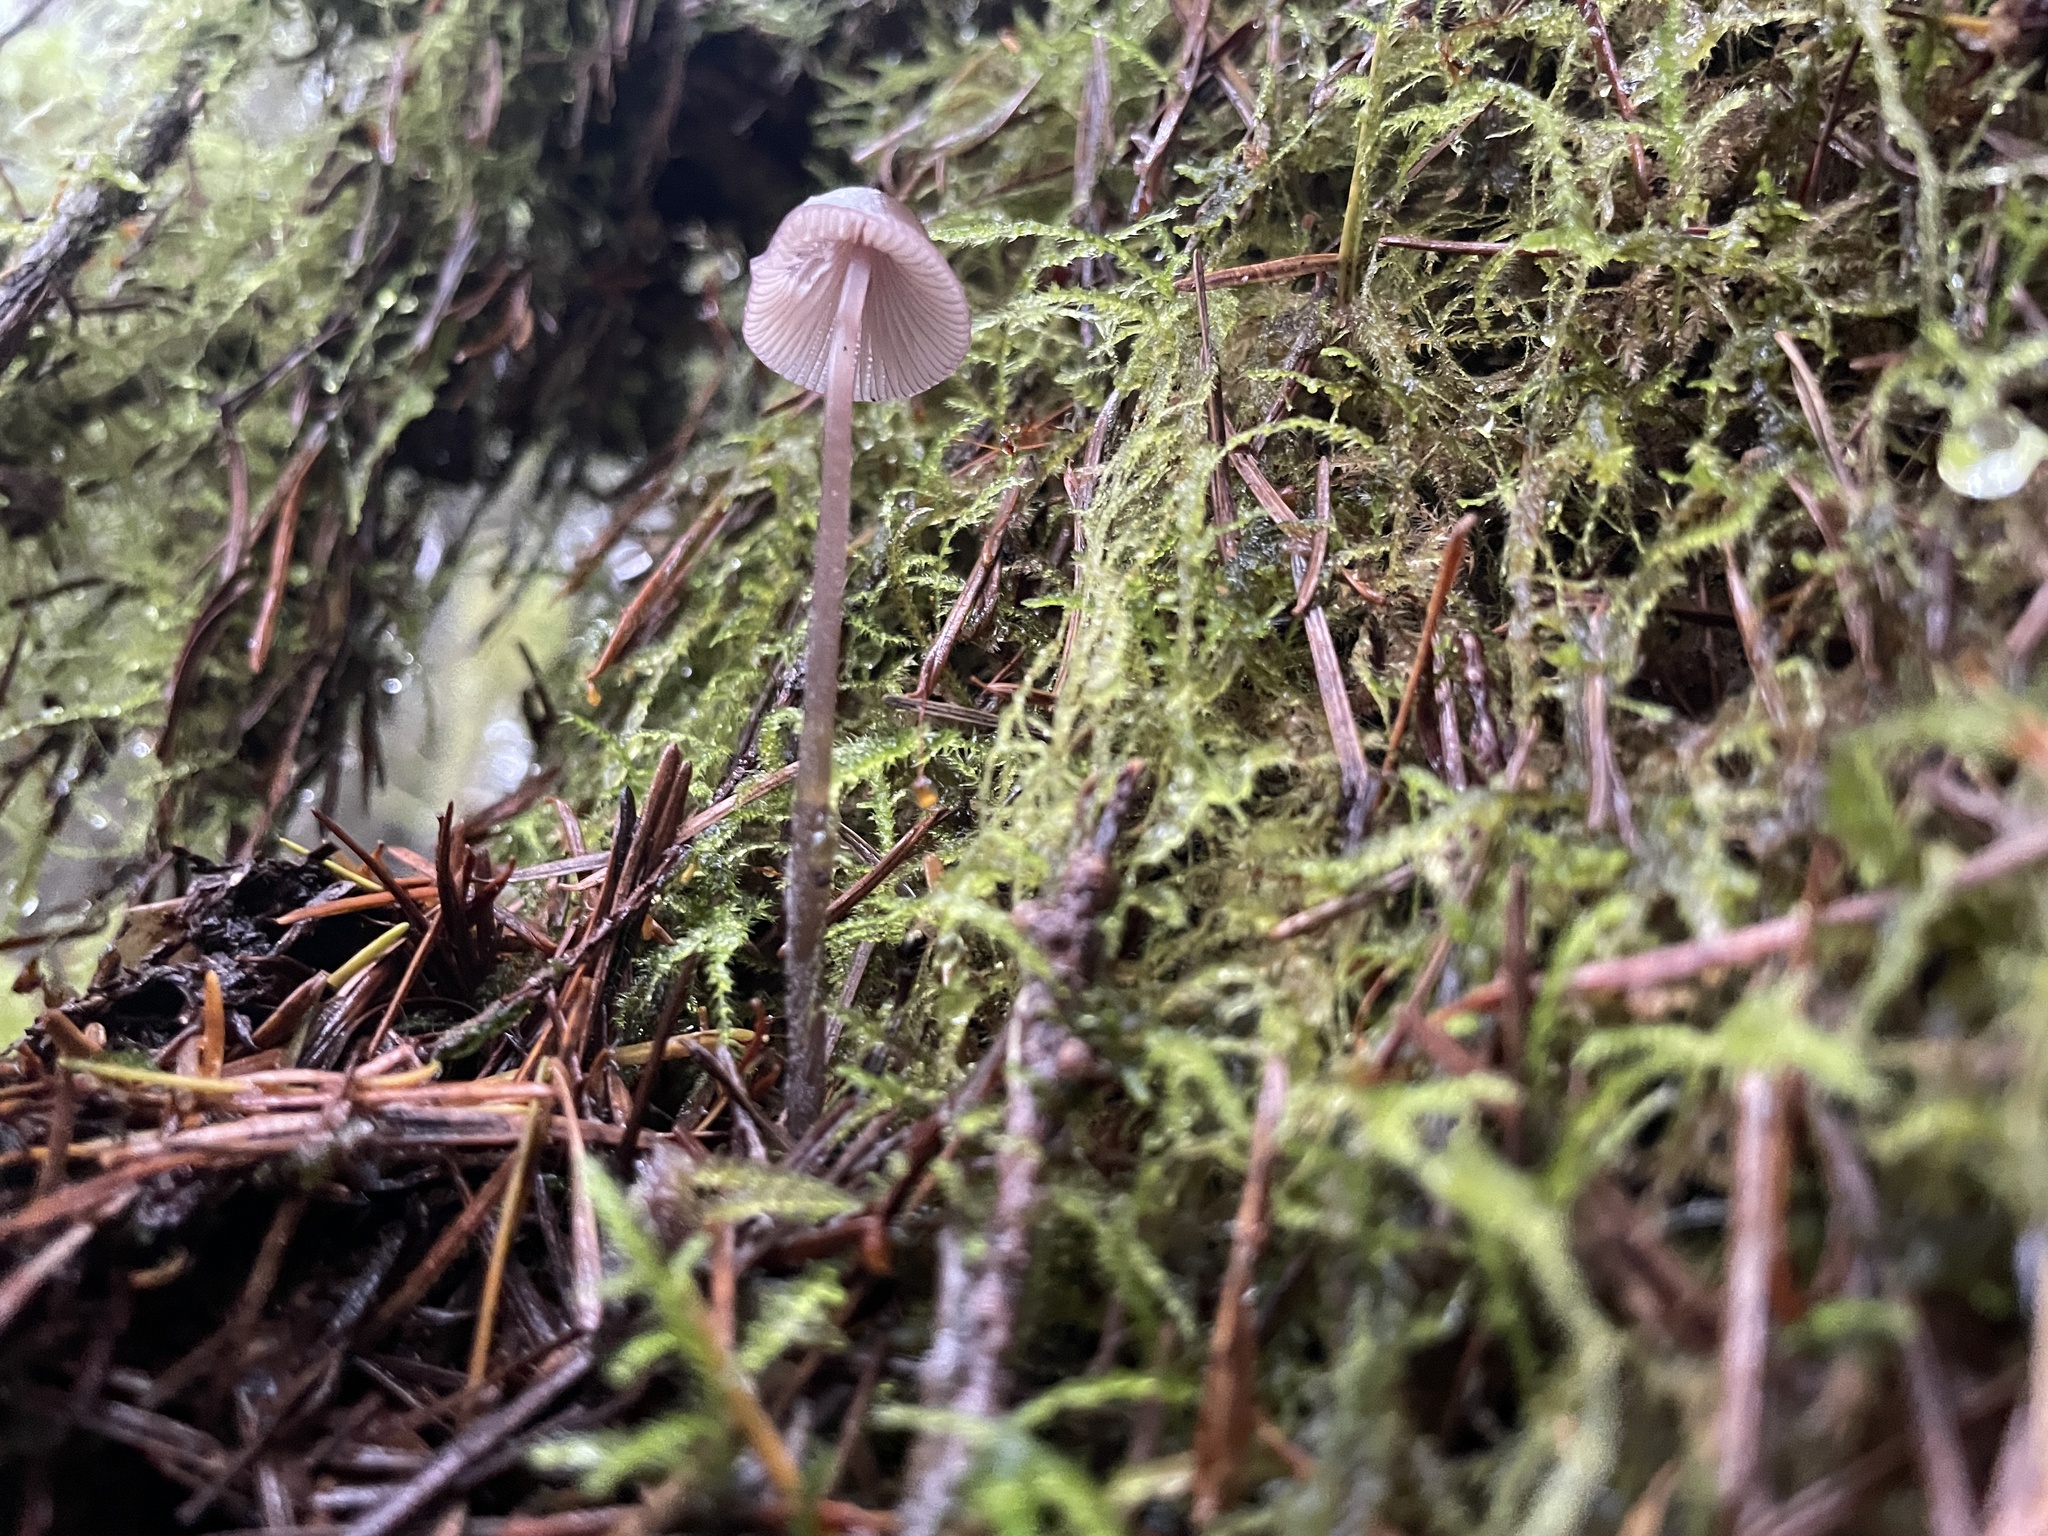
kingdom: Fungi
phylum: Basidiomycota
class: Agaricomycetes
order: Agaricales
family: Mycenaceae
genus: Mycena
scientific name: Mycena purpureofusca
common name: Purple edge bonnet
